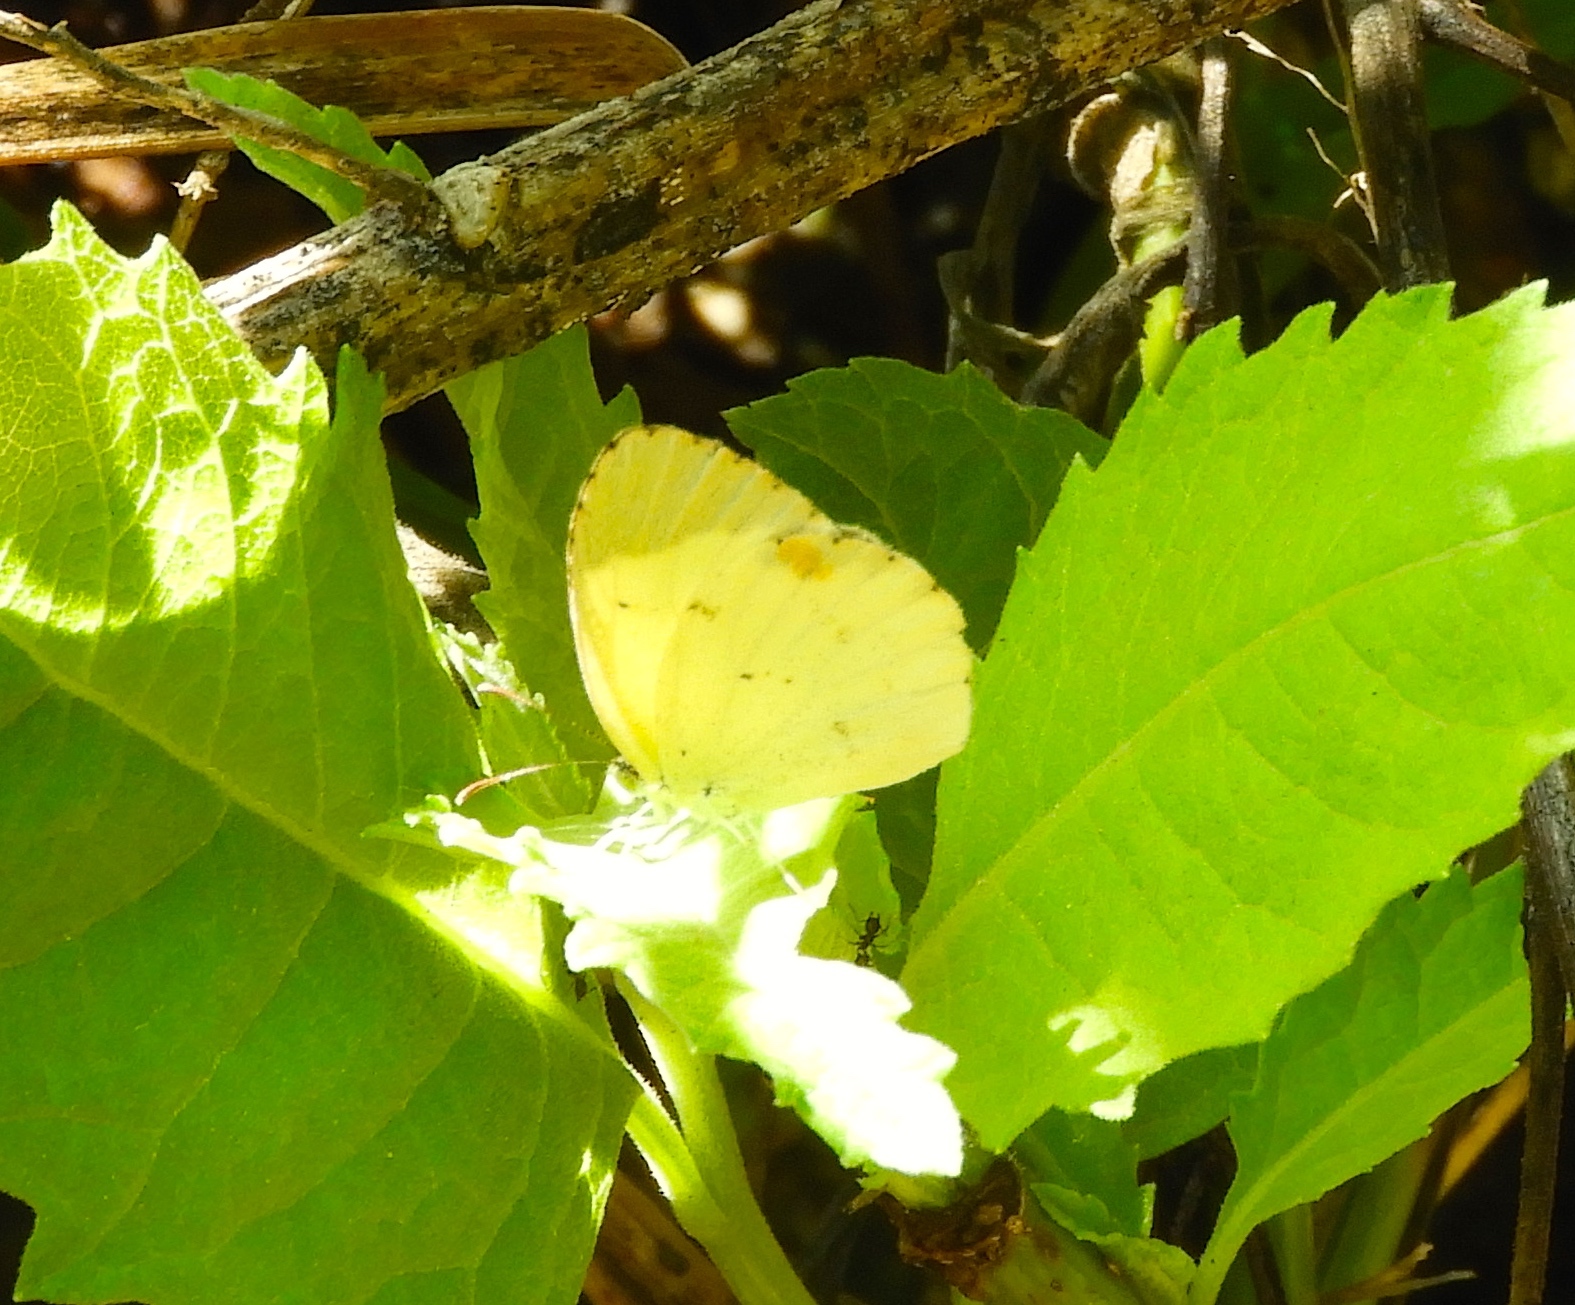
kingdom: Animalia
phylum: Arthropoda
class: Insecta
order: Lepidoptera
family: Pieridae
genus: Pyrisitia
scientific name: Pyrisitia lisa
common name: Little yellow
